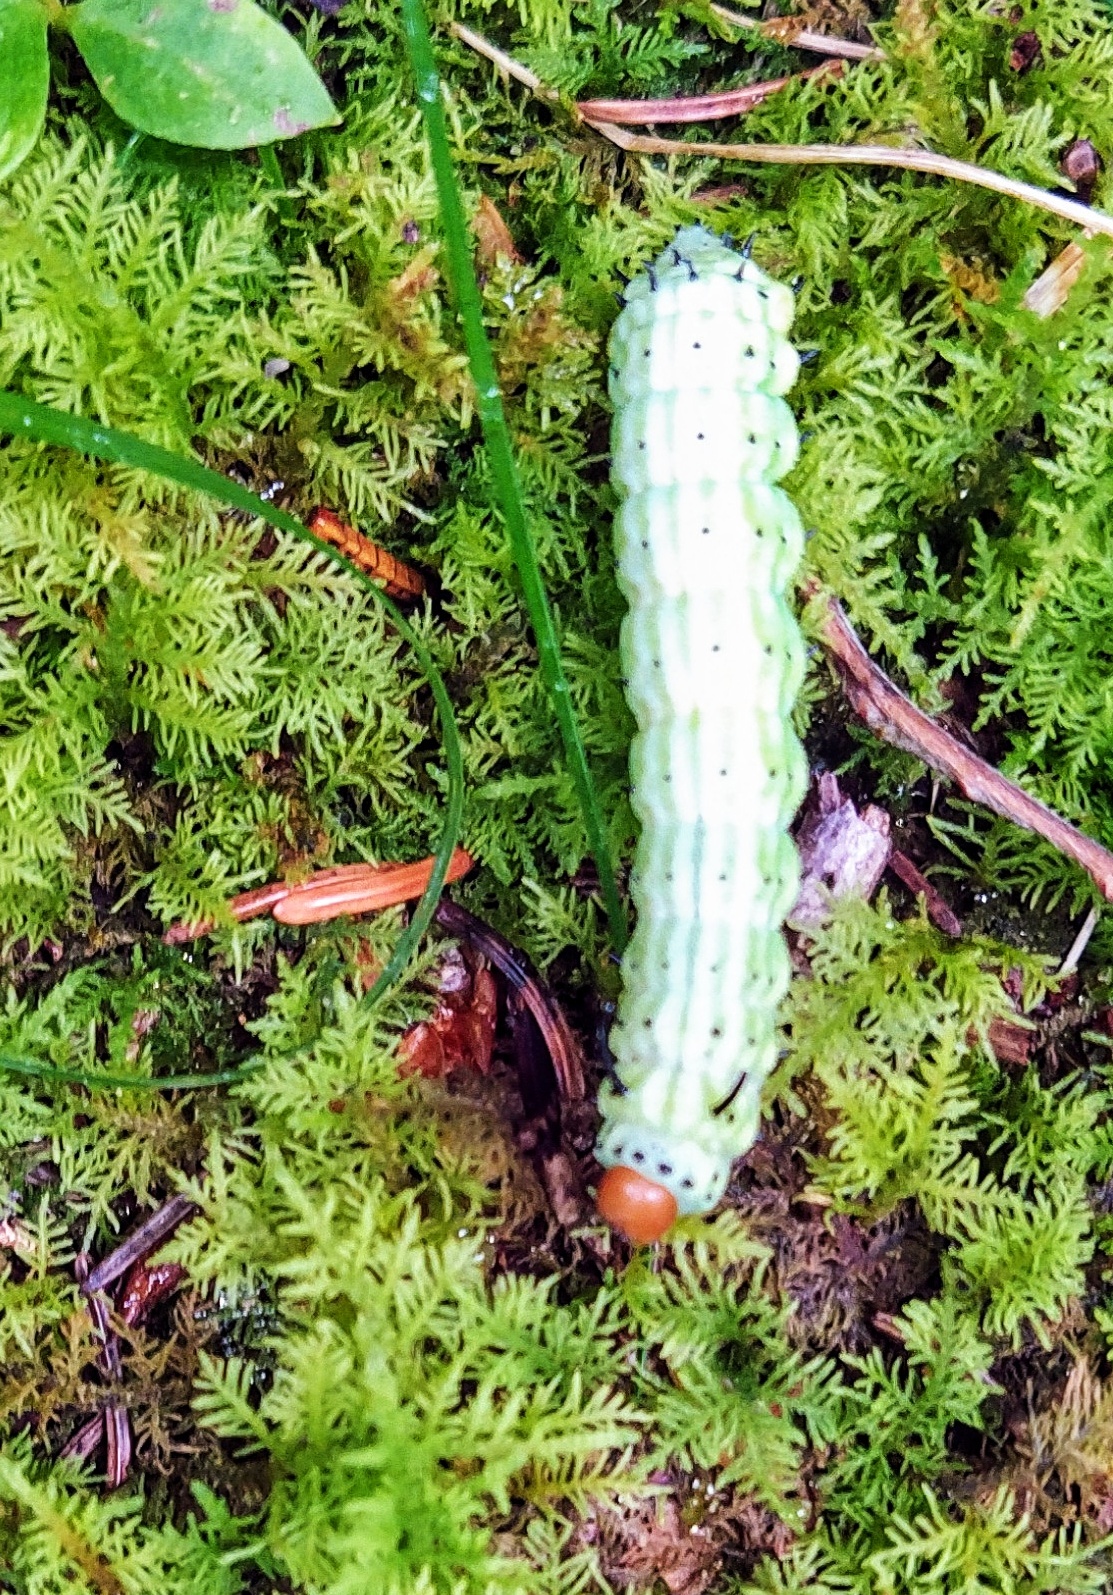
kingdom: Animalia
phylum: Arthropoda
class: Insecta
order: Lepidoptera
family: Saturniidae
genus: Dryocampa
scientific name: Dryocampa rubicunda
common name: Rosy maple moth
